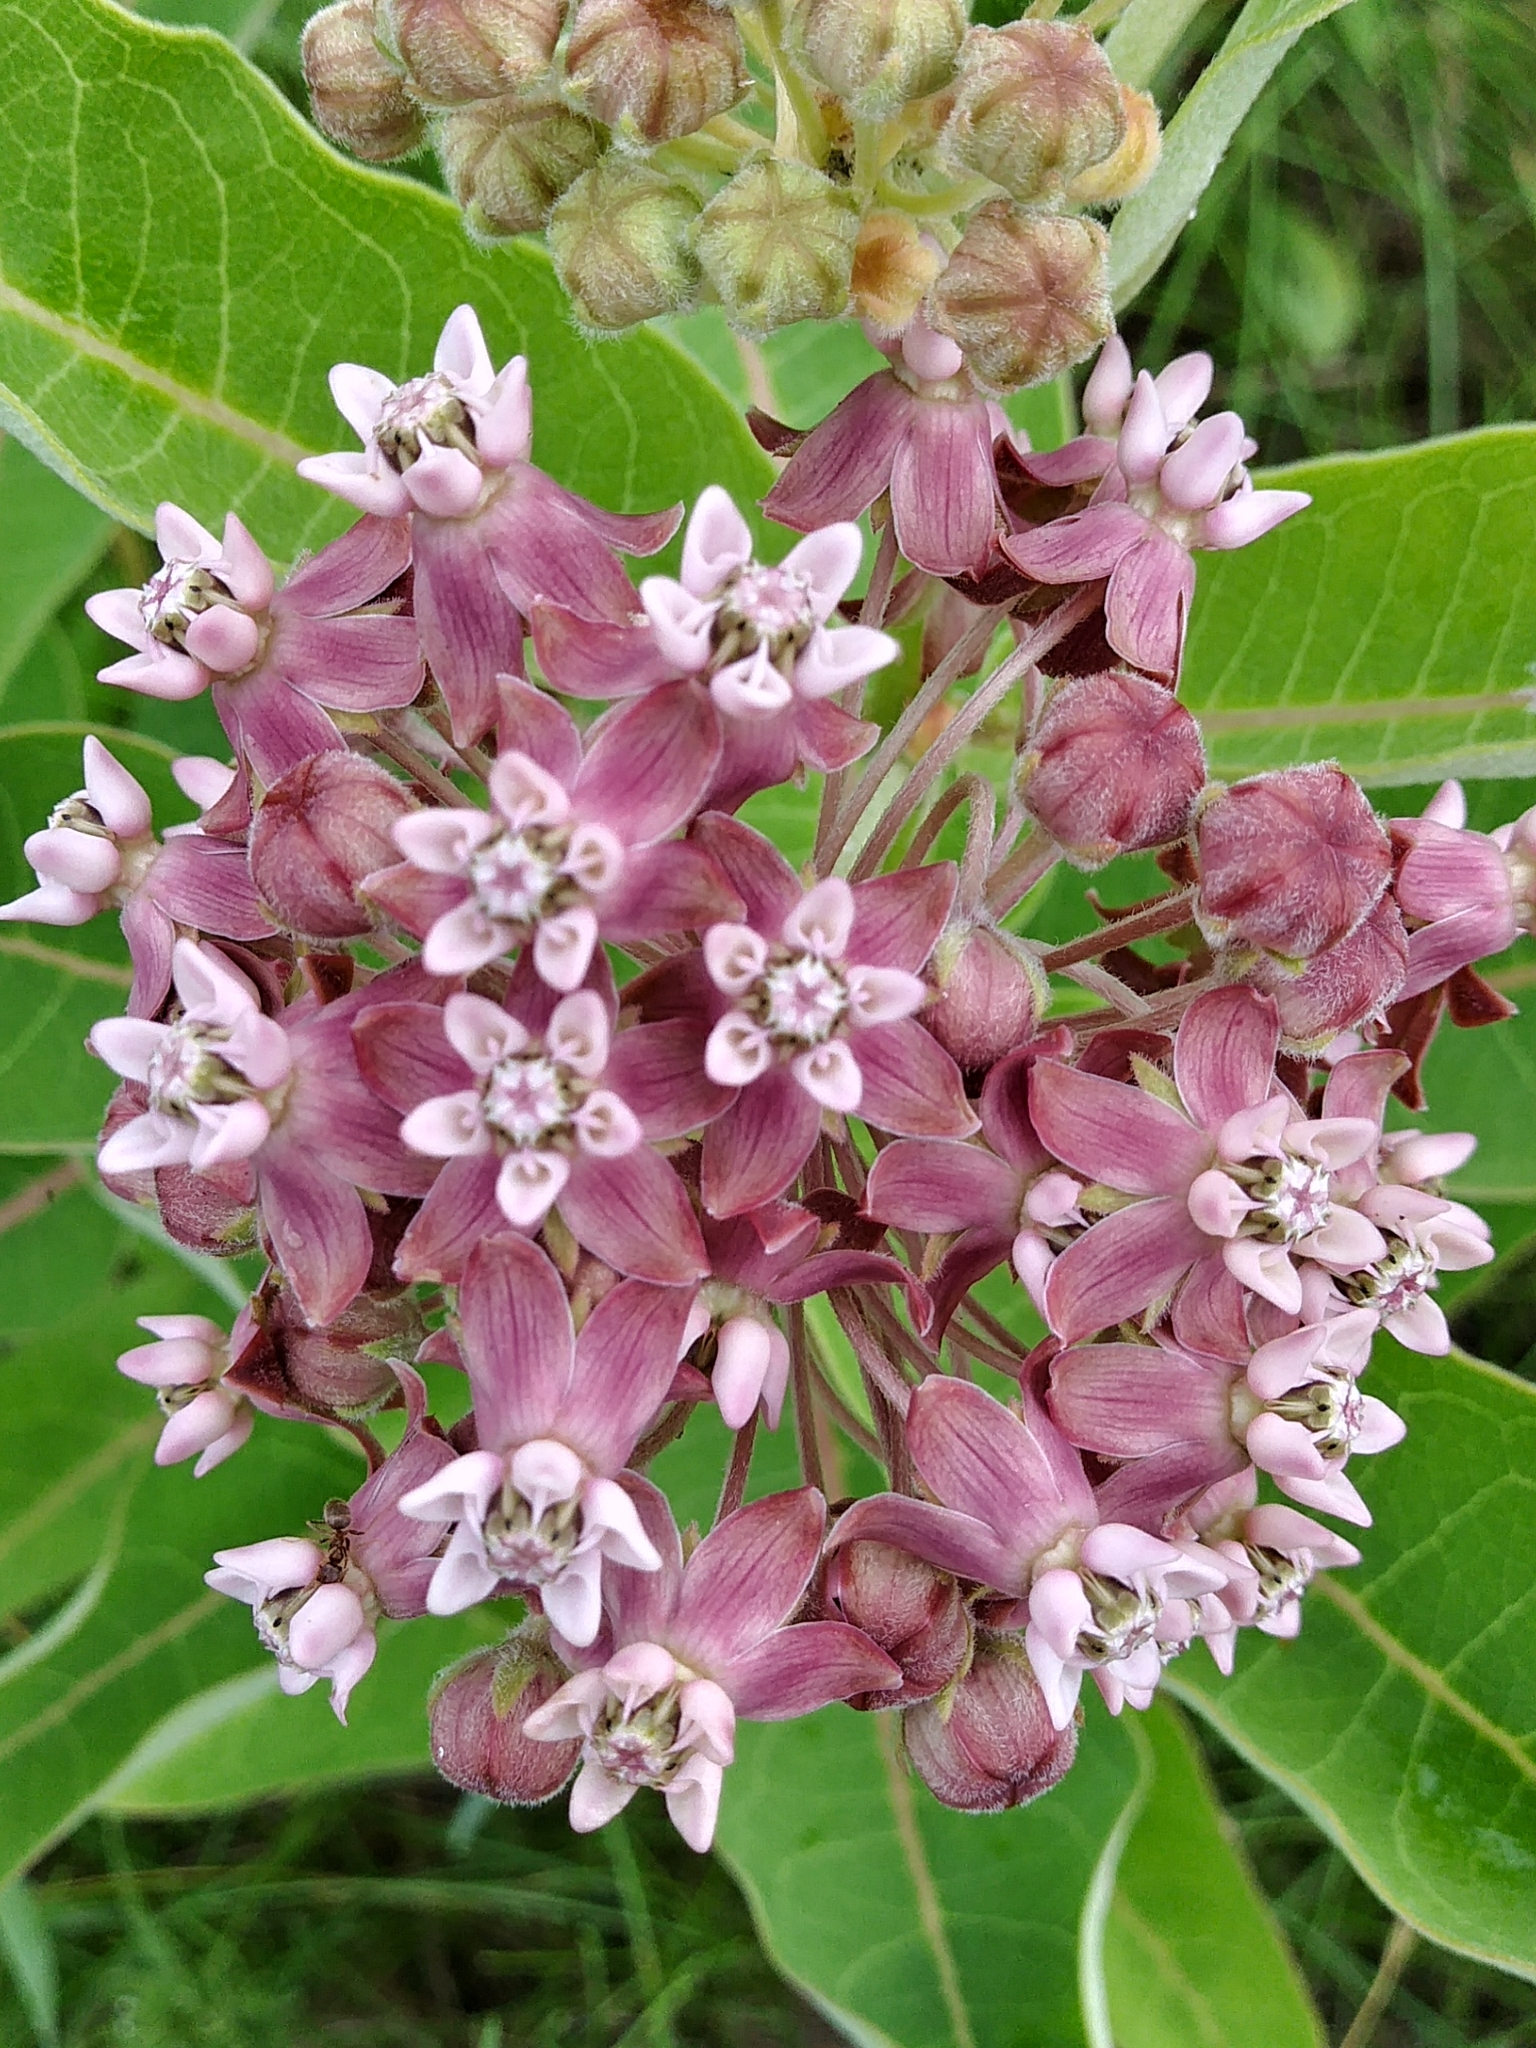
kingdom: Plantae
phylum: Tracheophyta
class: Magnoliopsida
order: Gentianales
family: Apocynaceae
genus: Asclepias
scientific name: Asclepias syriaca
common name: Common milkweed
